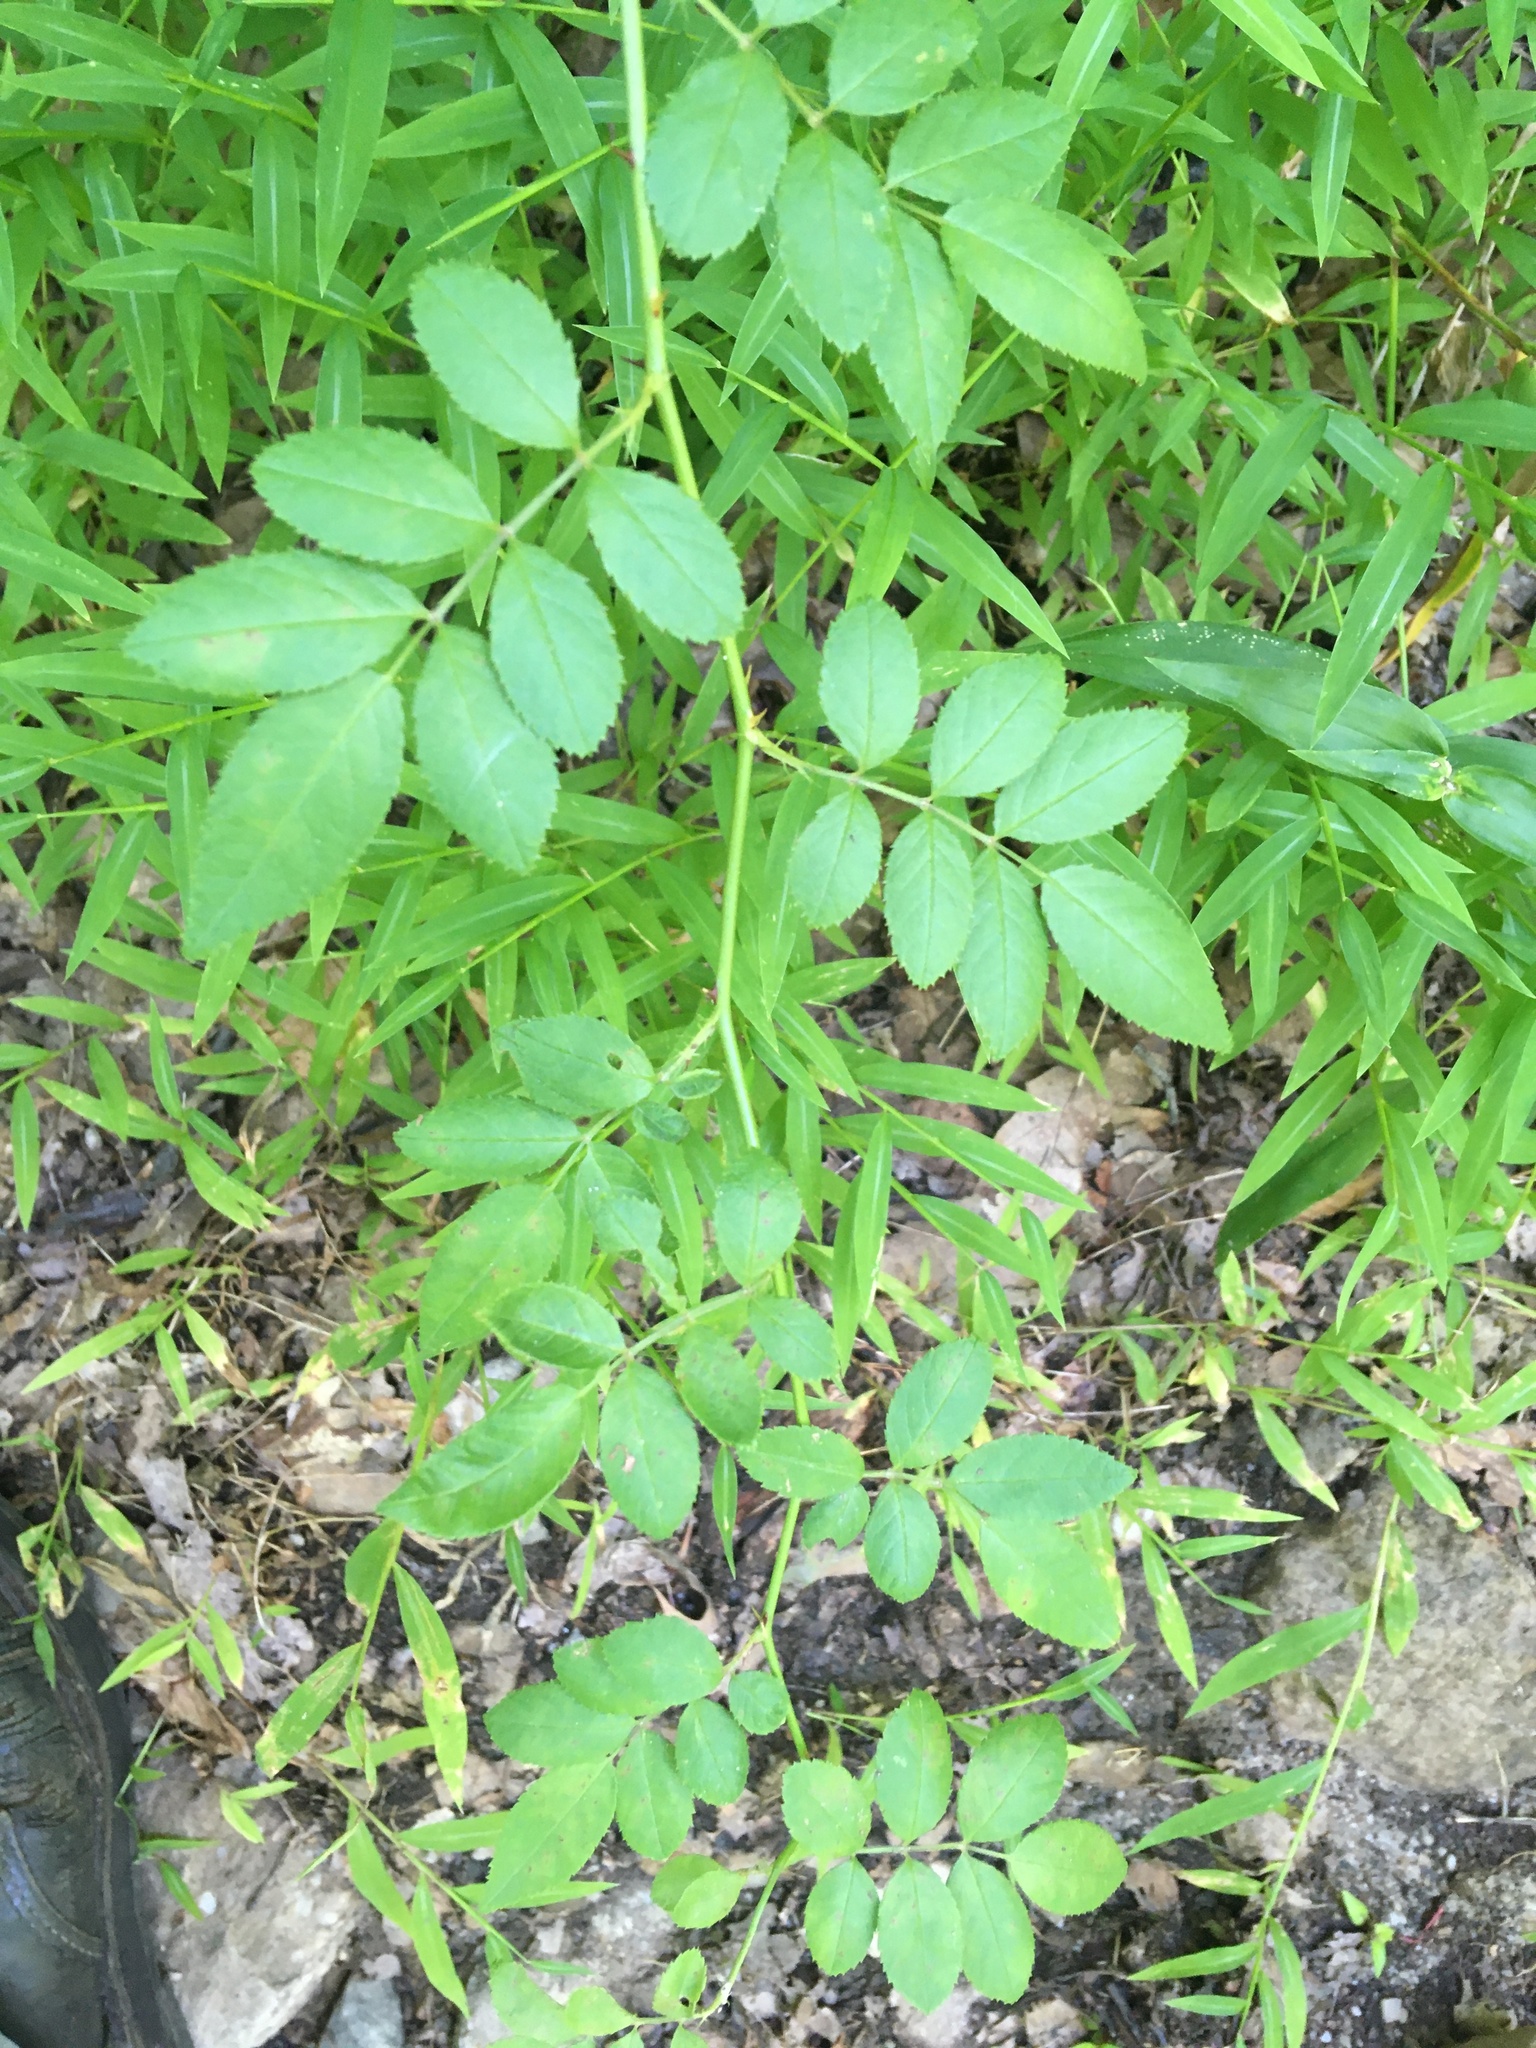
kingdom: Plantae
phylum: Tracheophyta
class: Magnoliopsida
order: Rosales
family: Rosaceae
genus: Rosa
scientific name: Rosa multiflora
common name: Multiflora rose
